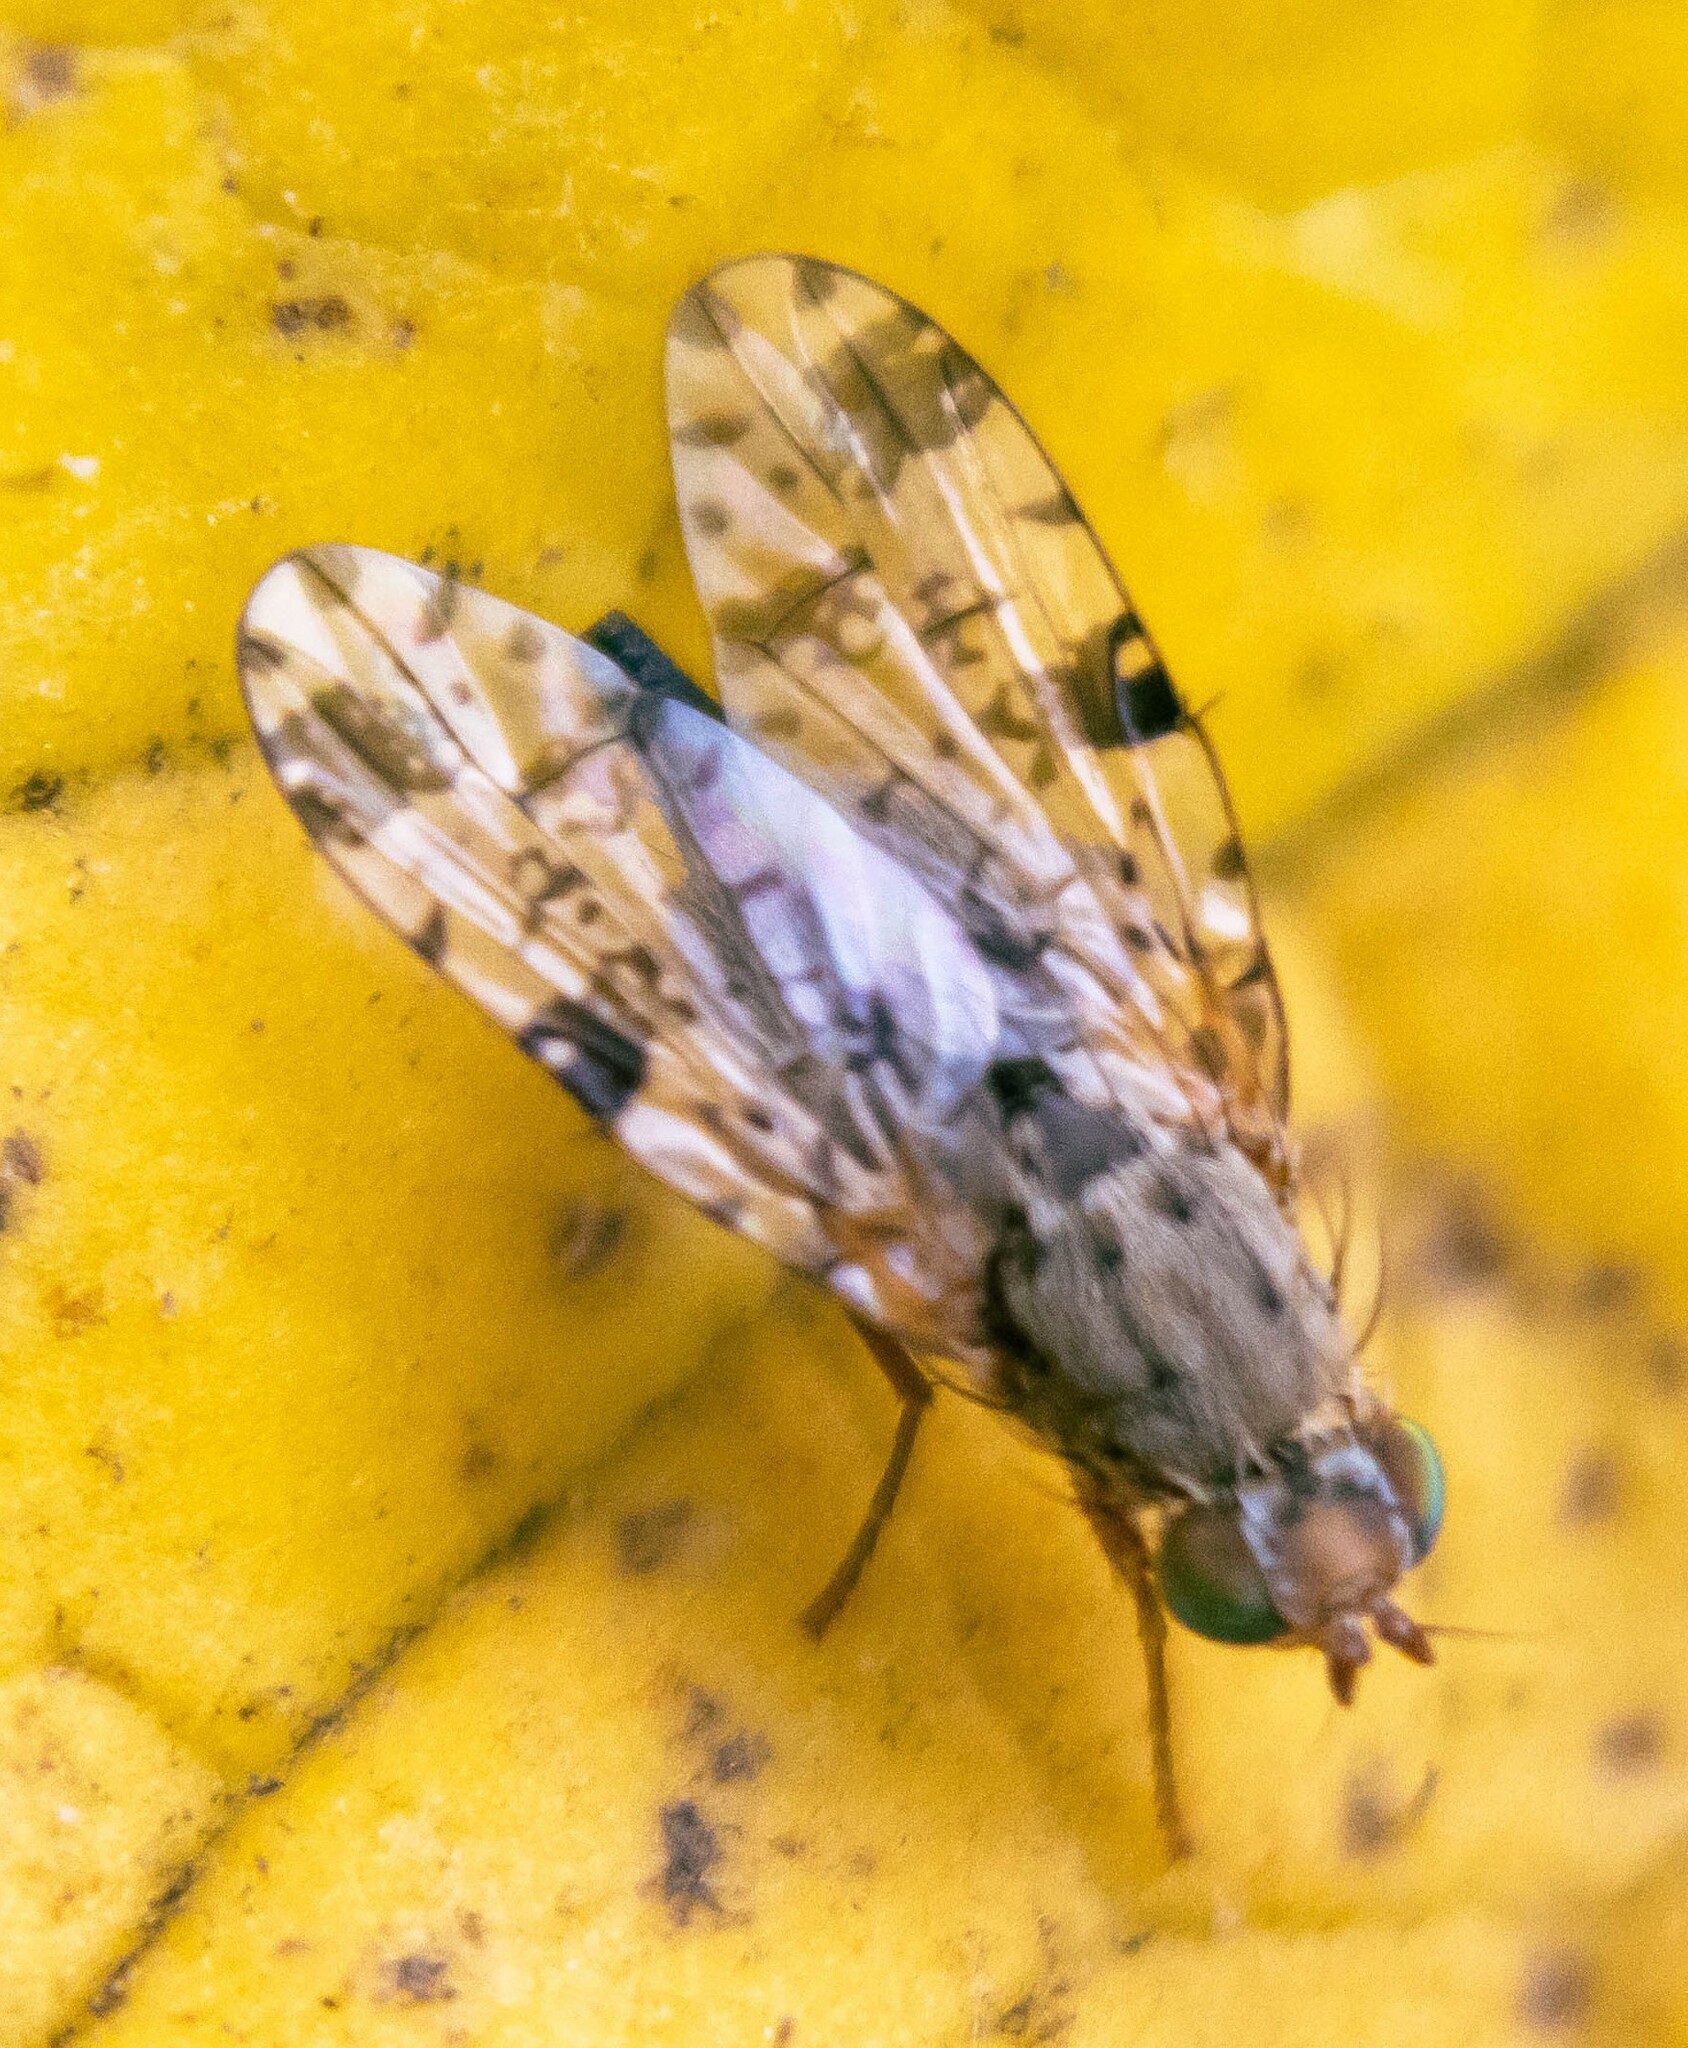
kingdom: Animalia
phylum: Arthropoda
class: Insecta
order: Diptera
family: Tephritidae
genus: Tephritis
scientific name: Tephritis hyoscyami
